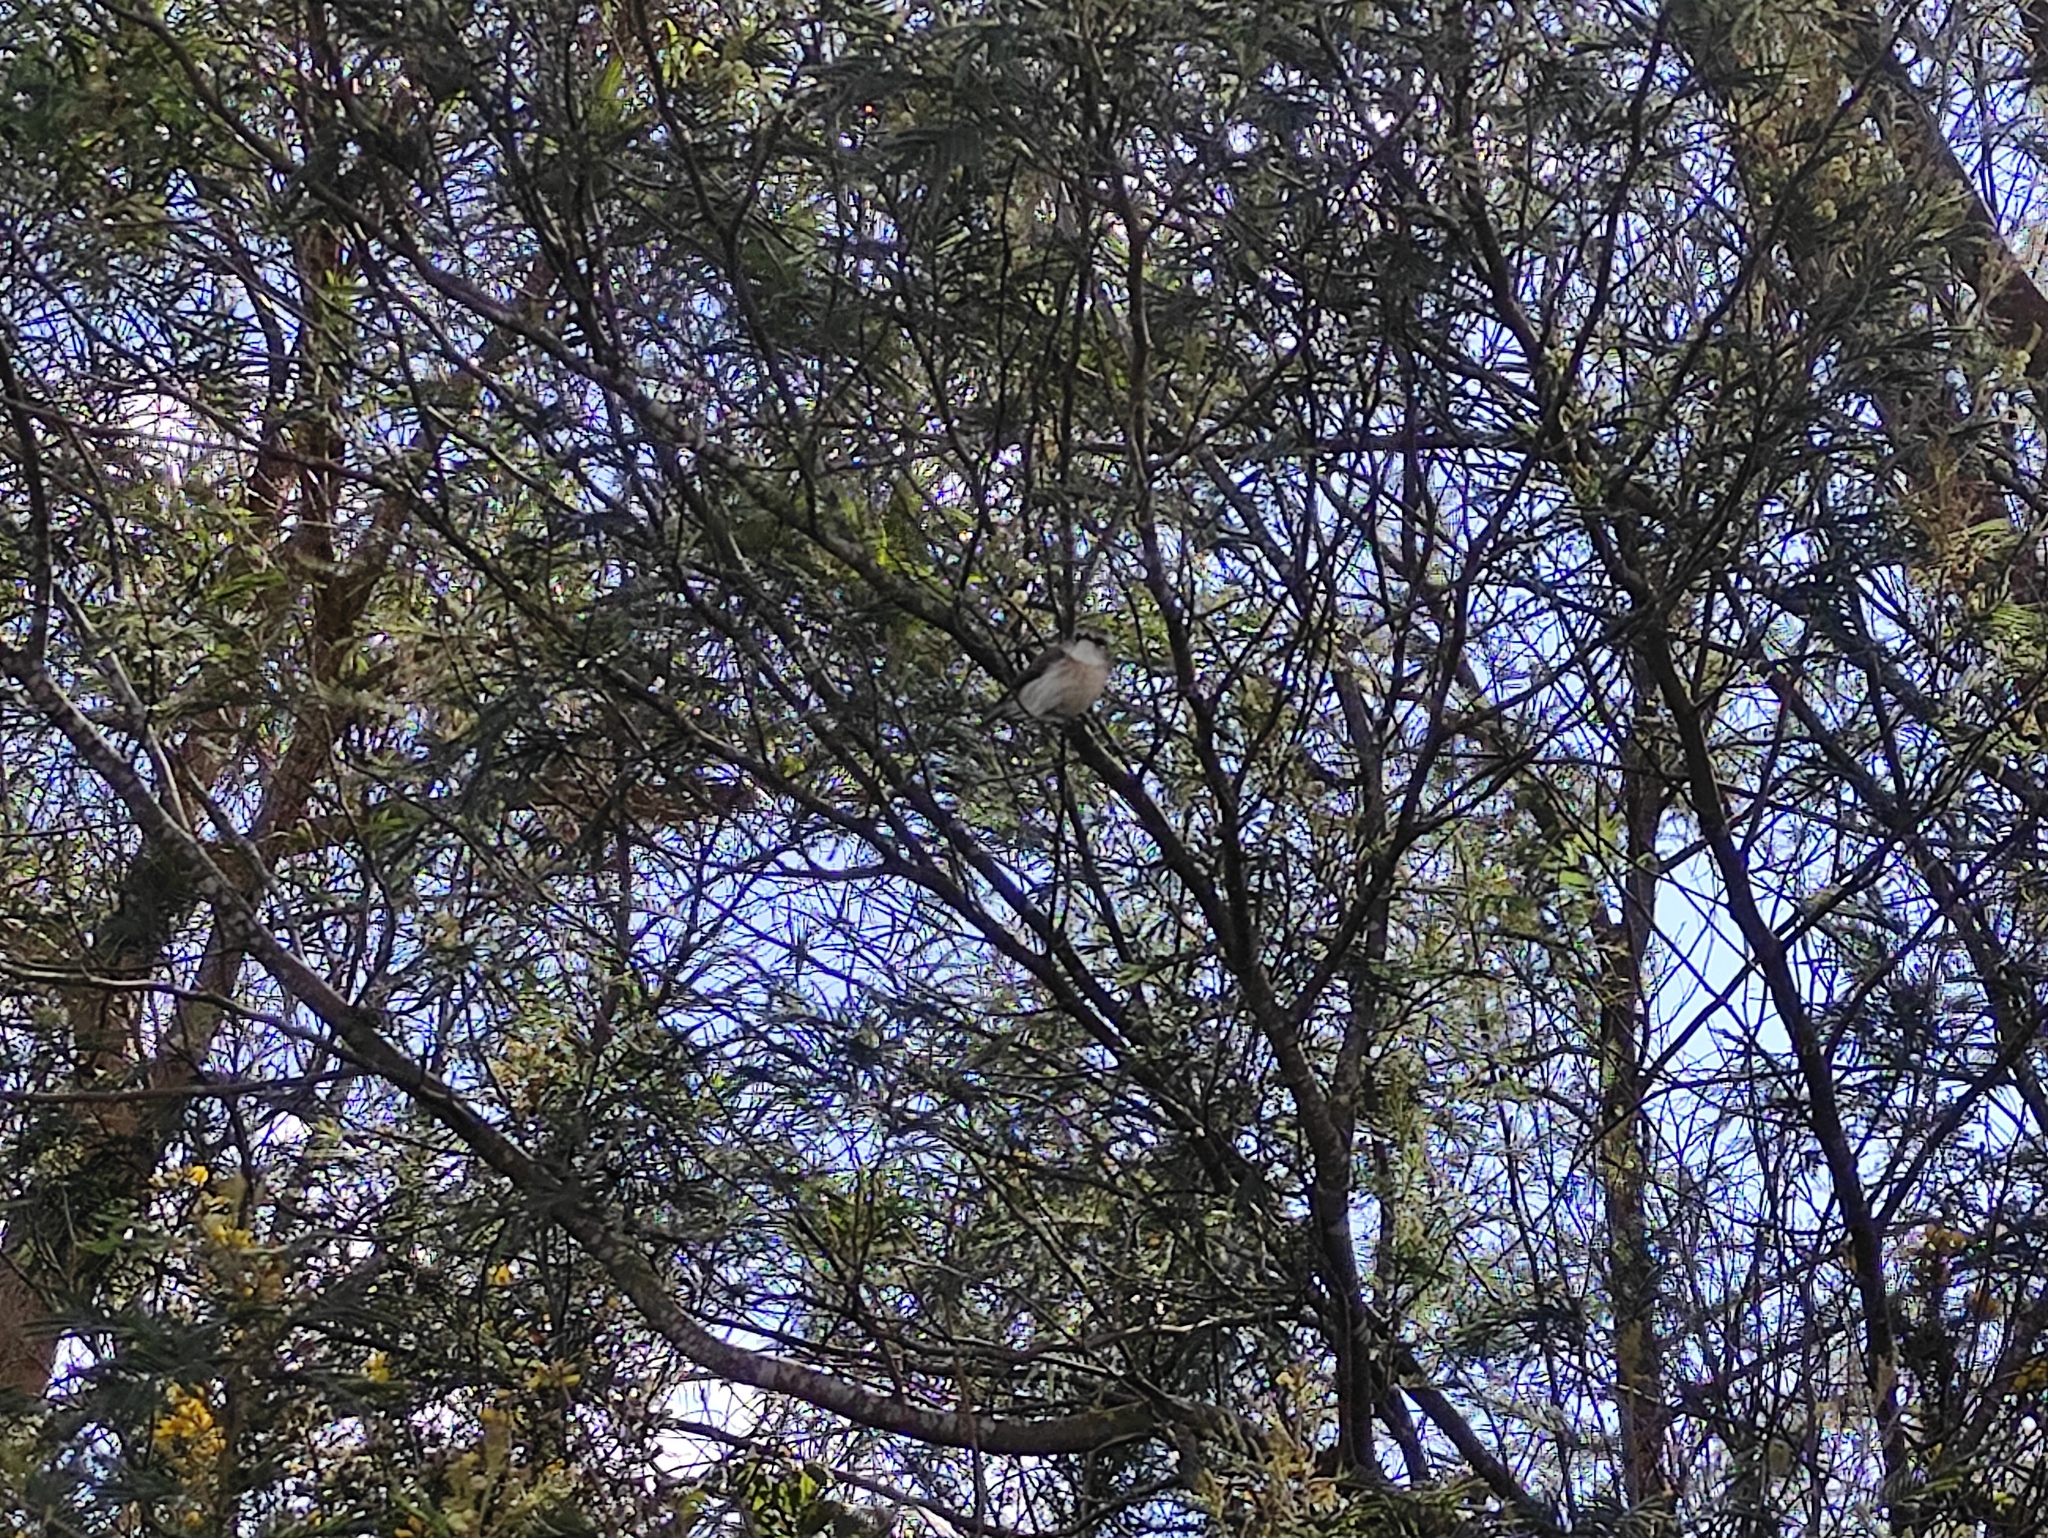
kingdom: Animalia
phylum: Chordata
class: Aves
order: Passeriformes
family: Muscicapidae
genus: Saxicola
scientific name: Saxicola tectes
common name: Reunion stonechat
